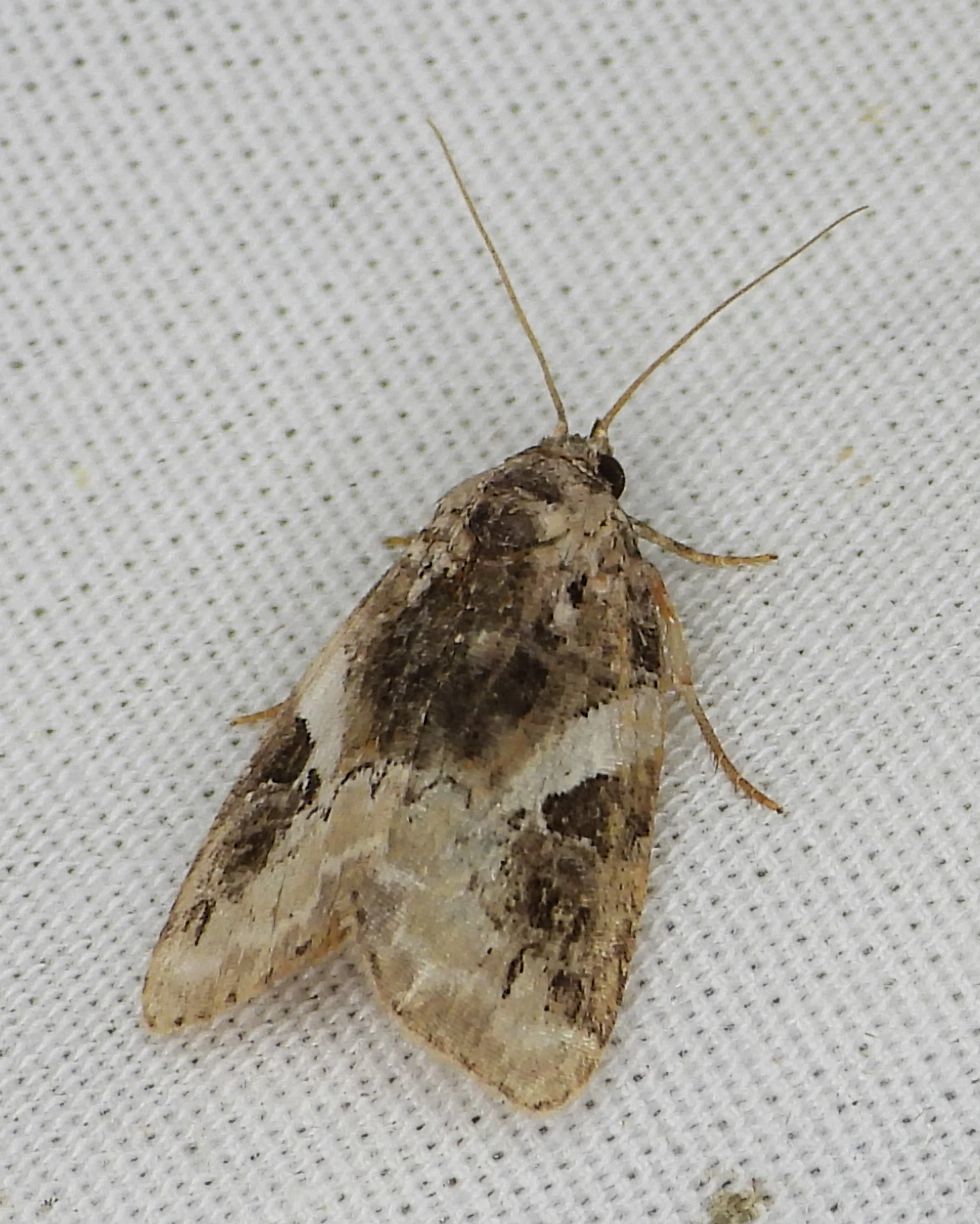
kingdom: Animalia
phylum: Arthropoda
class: Insecta
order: Lepidoptera
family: Noctuidae
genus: Pseudeustrotia
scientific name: Pseudeustrotia carneola
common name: Pink-barred lithacodia moth
